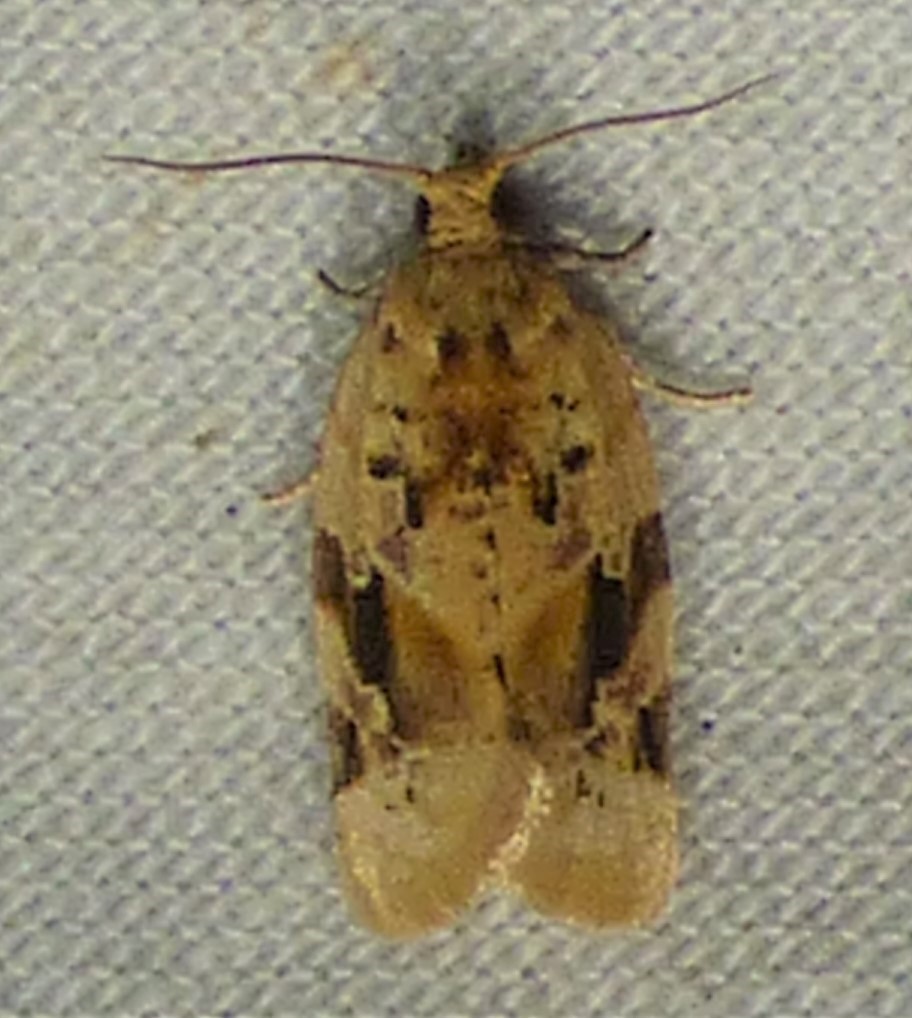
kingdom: Animalia
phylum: Arthropoda
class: Insecta
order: Lepidoptera
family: Tortricidae
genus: Argyrotaenia
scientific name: Argyrotaenia velutinana
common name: Red-banded leafroller moth
